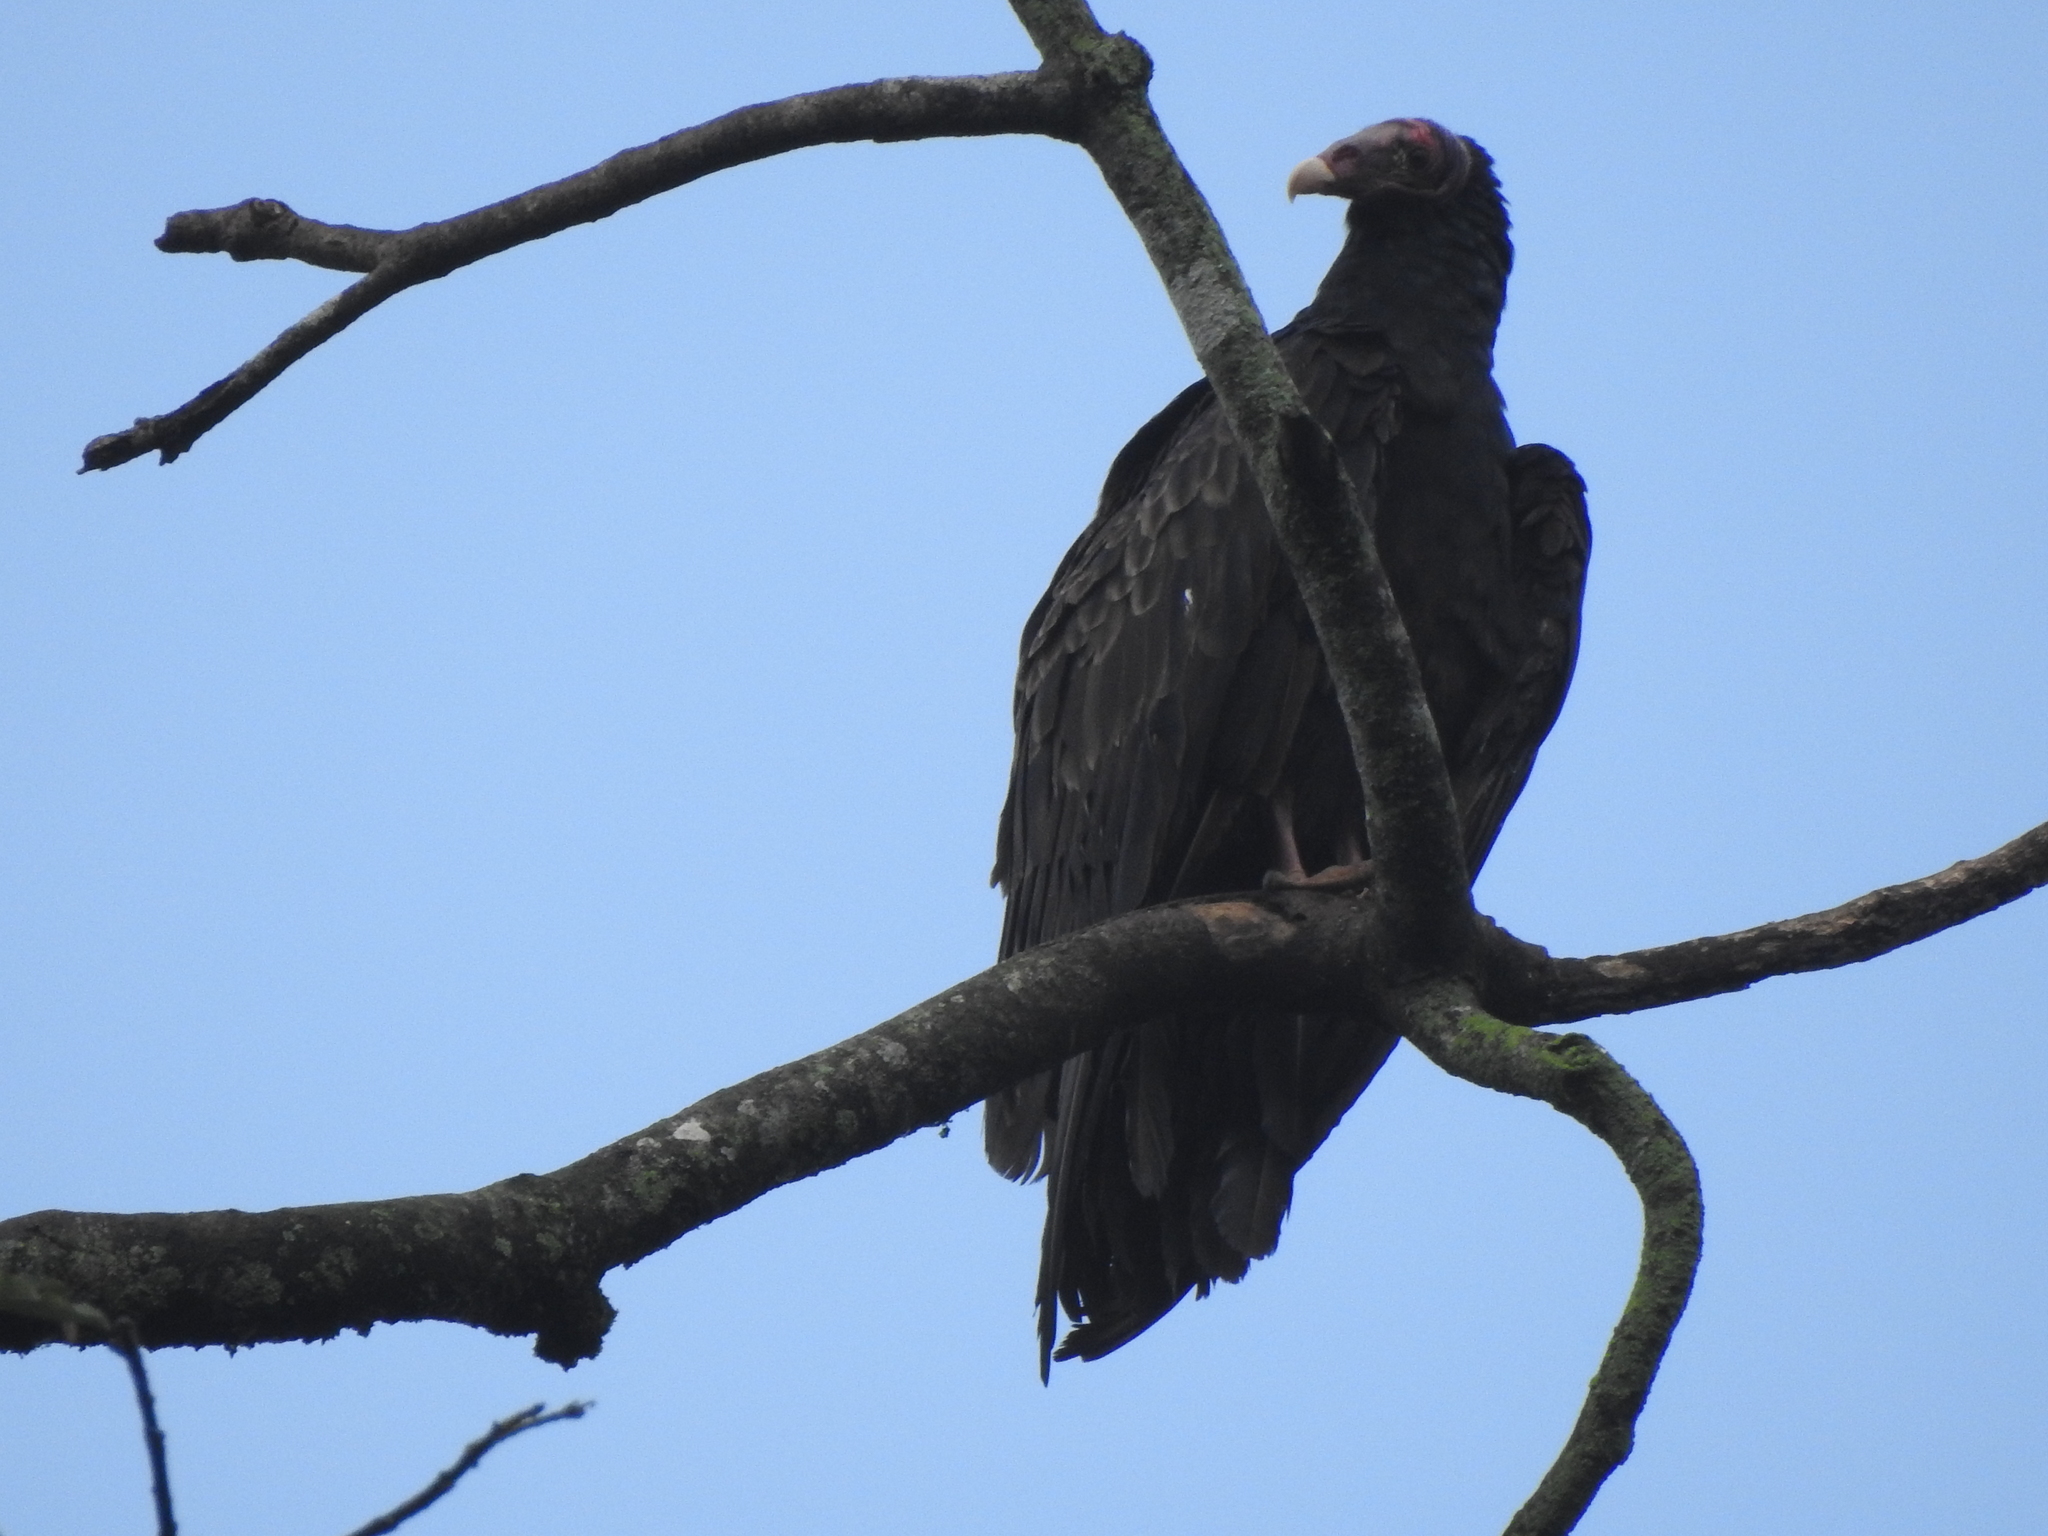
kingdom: Animalia
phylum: Chordata
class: Aves
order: Accipitriformes
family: Cathartidae
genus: Cathartes
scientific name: Cathartes aura
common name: Turkey vulture
